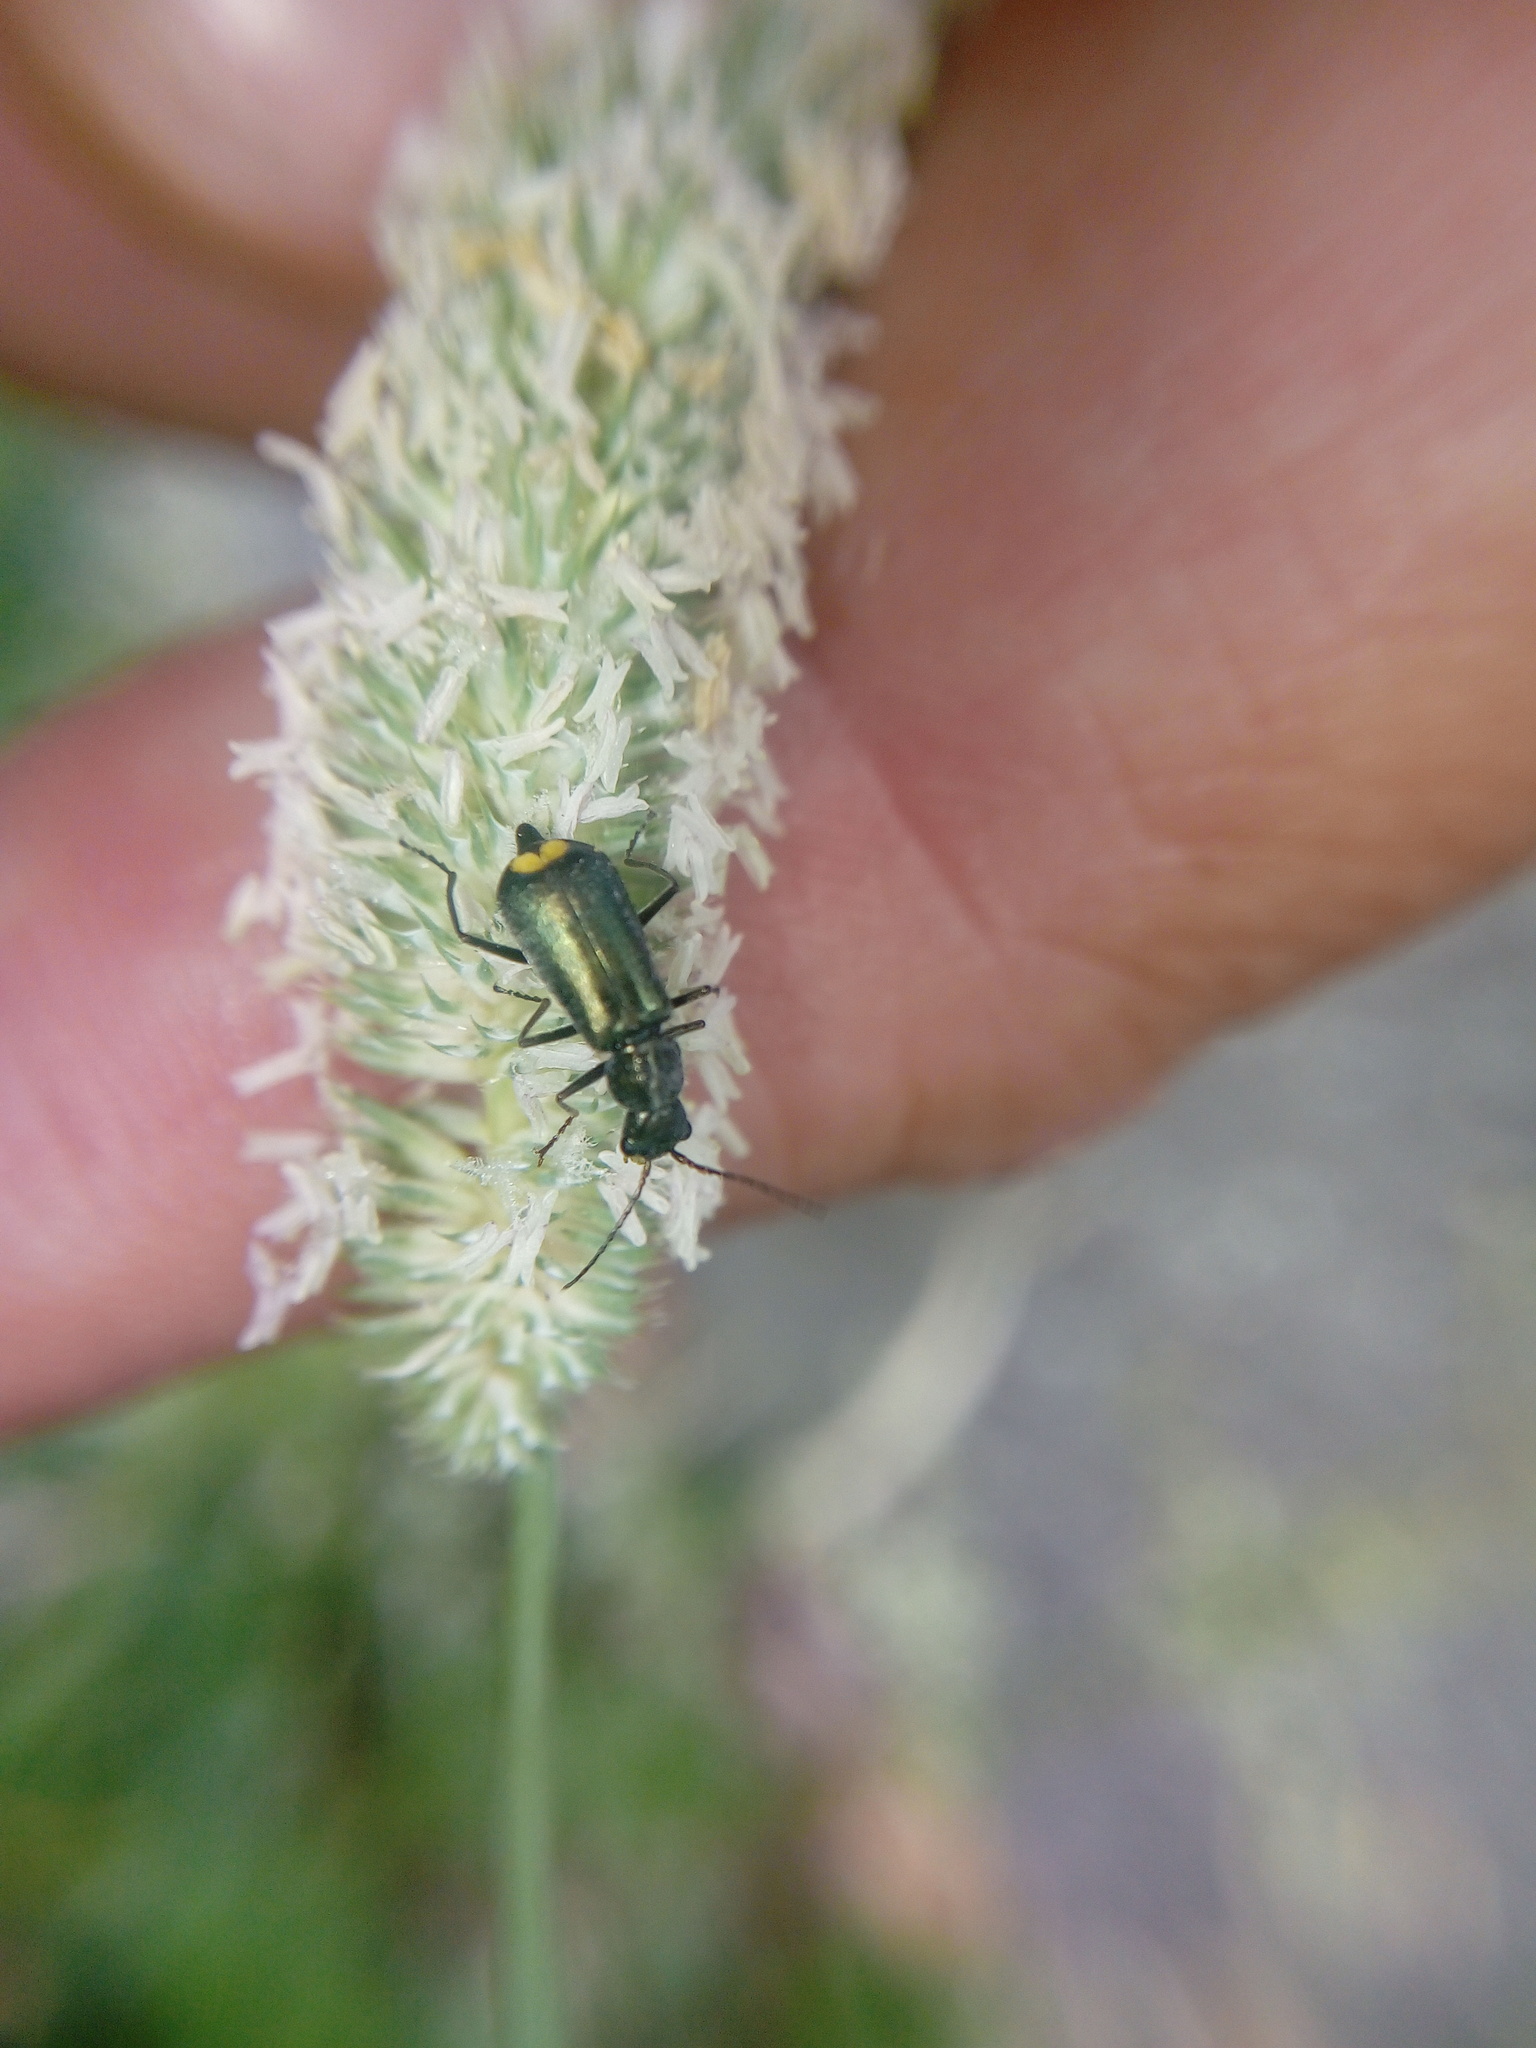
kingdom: Animalia
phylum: Arthropoda
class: Insecta
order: Coleoptera
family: Malachiidae
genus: Clanoptilus
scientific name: Clanoptilus emarginatus
